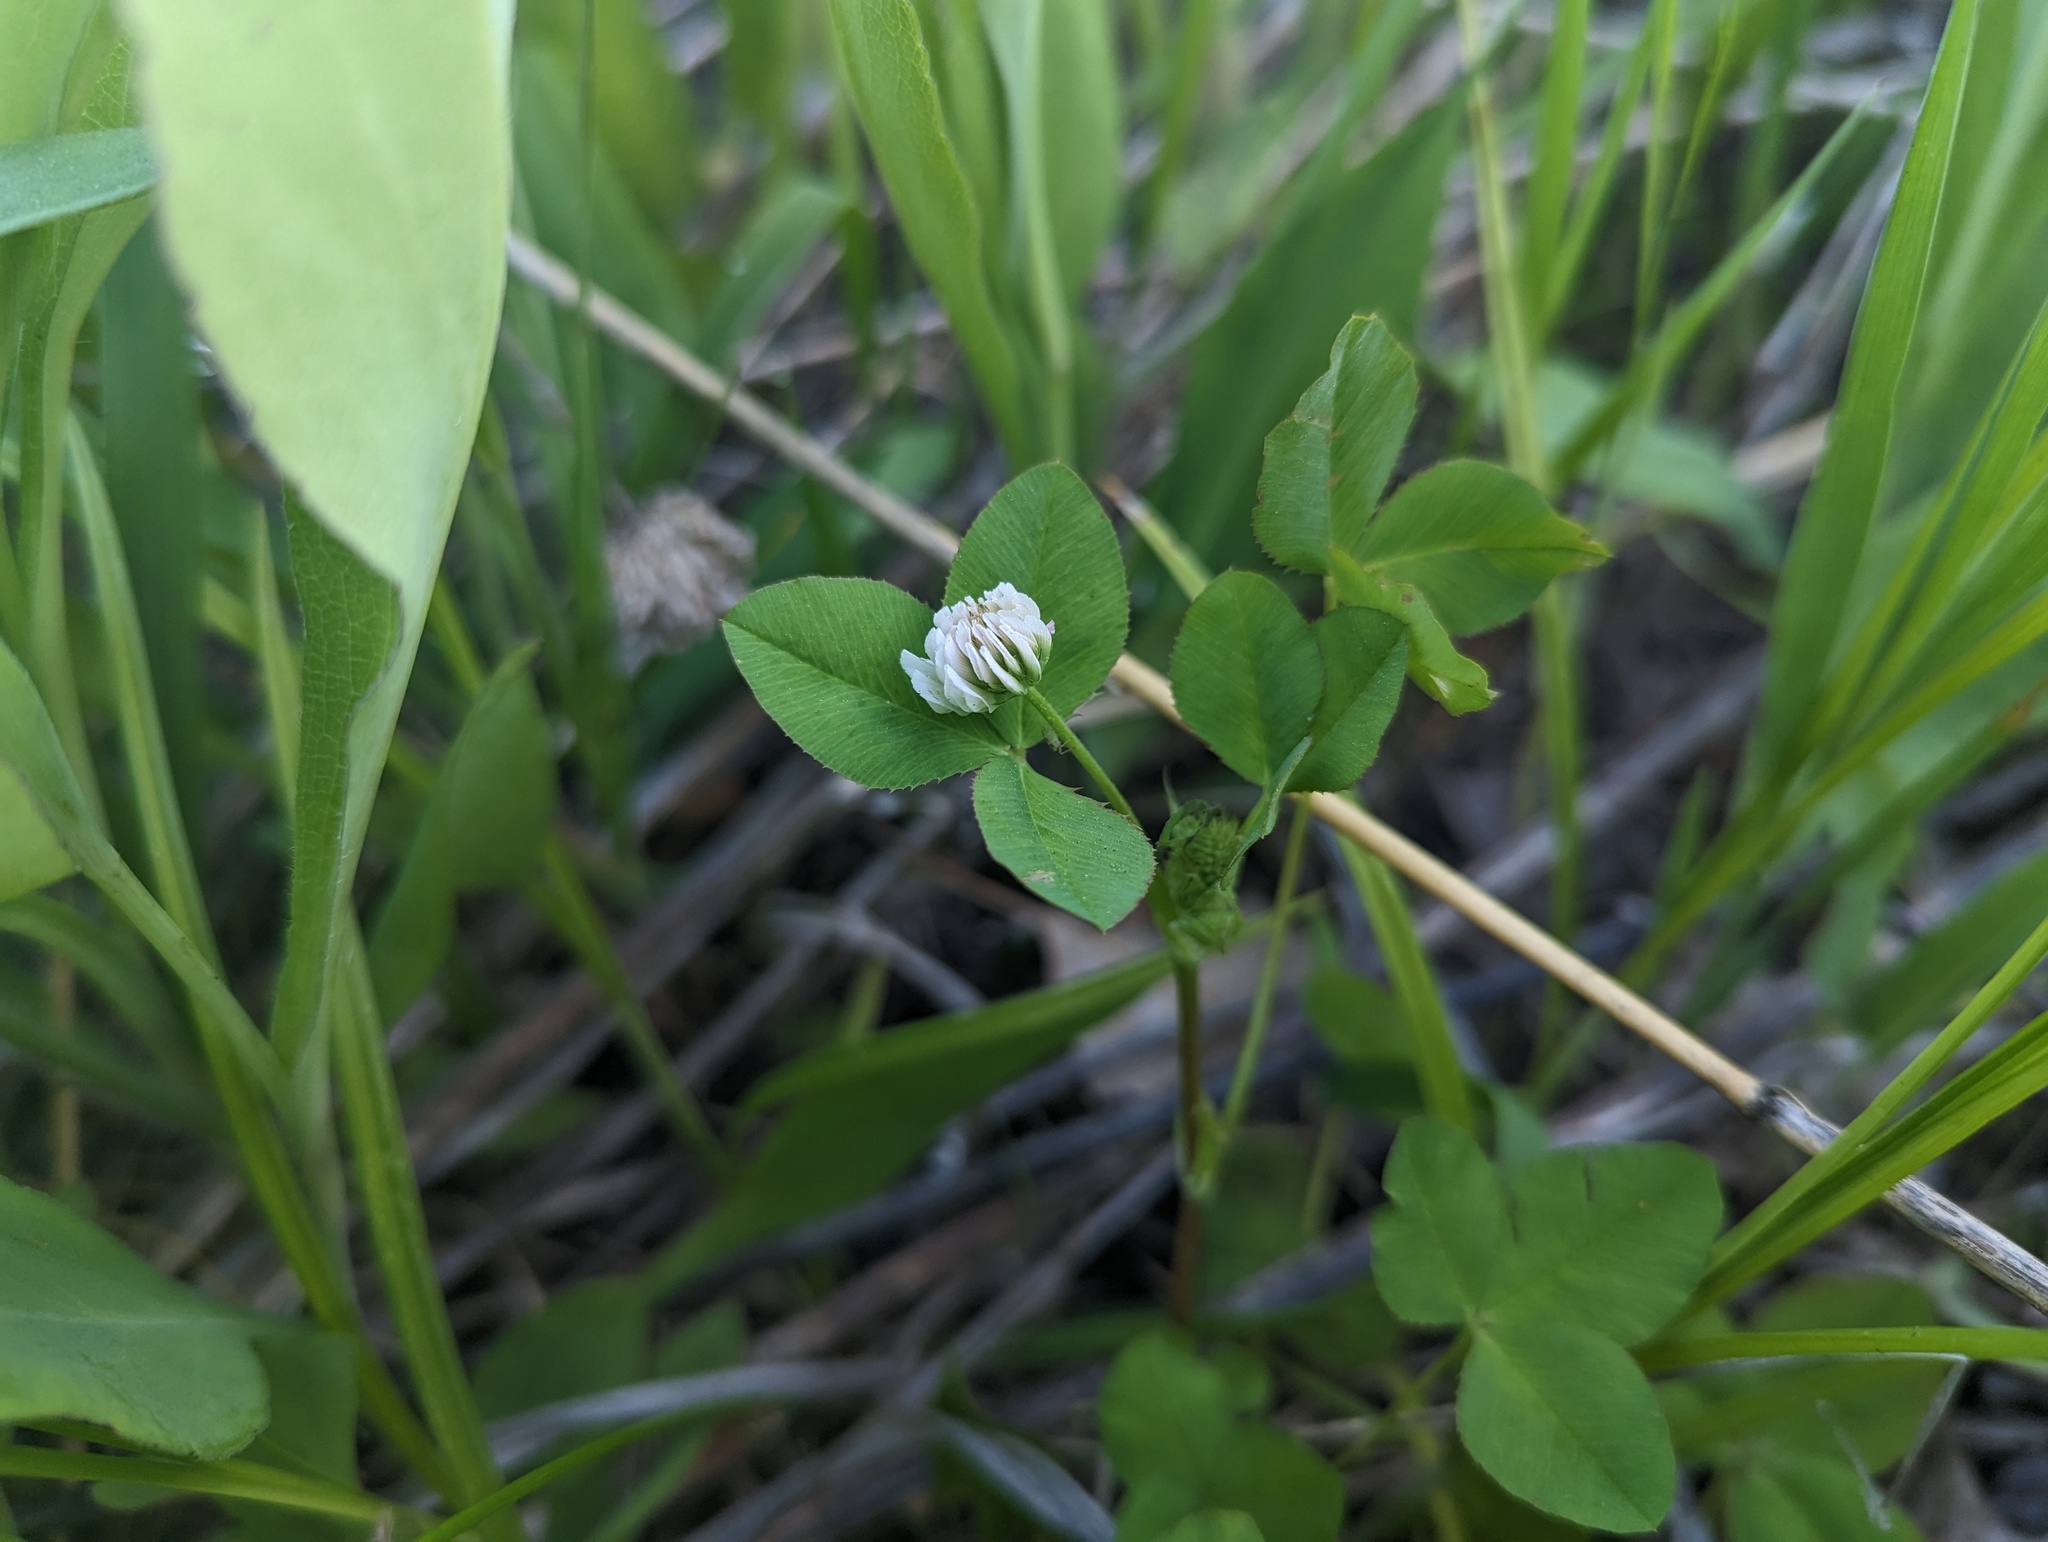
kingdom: Plantae
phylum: Tracheophyta
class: Magnoliopsida
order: Fabales
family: Fabaceae
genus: Trifolium
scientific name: Trifolium hybridum
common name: Alsike clover
